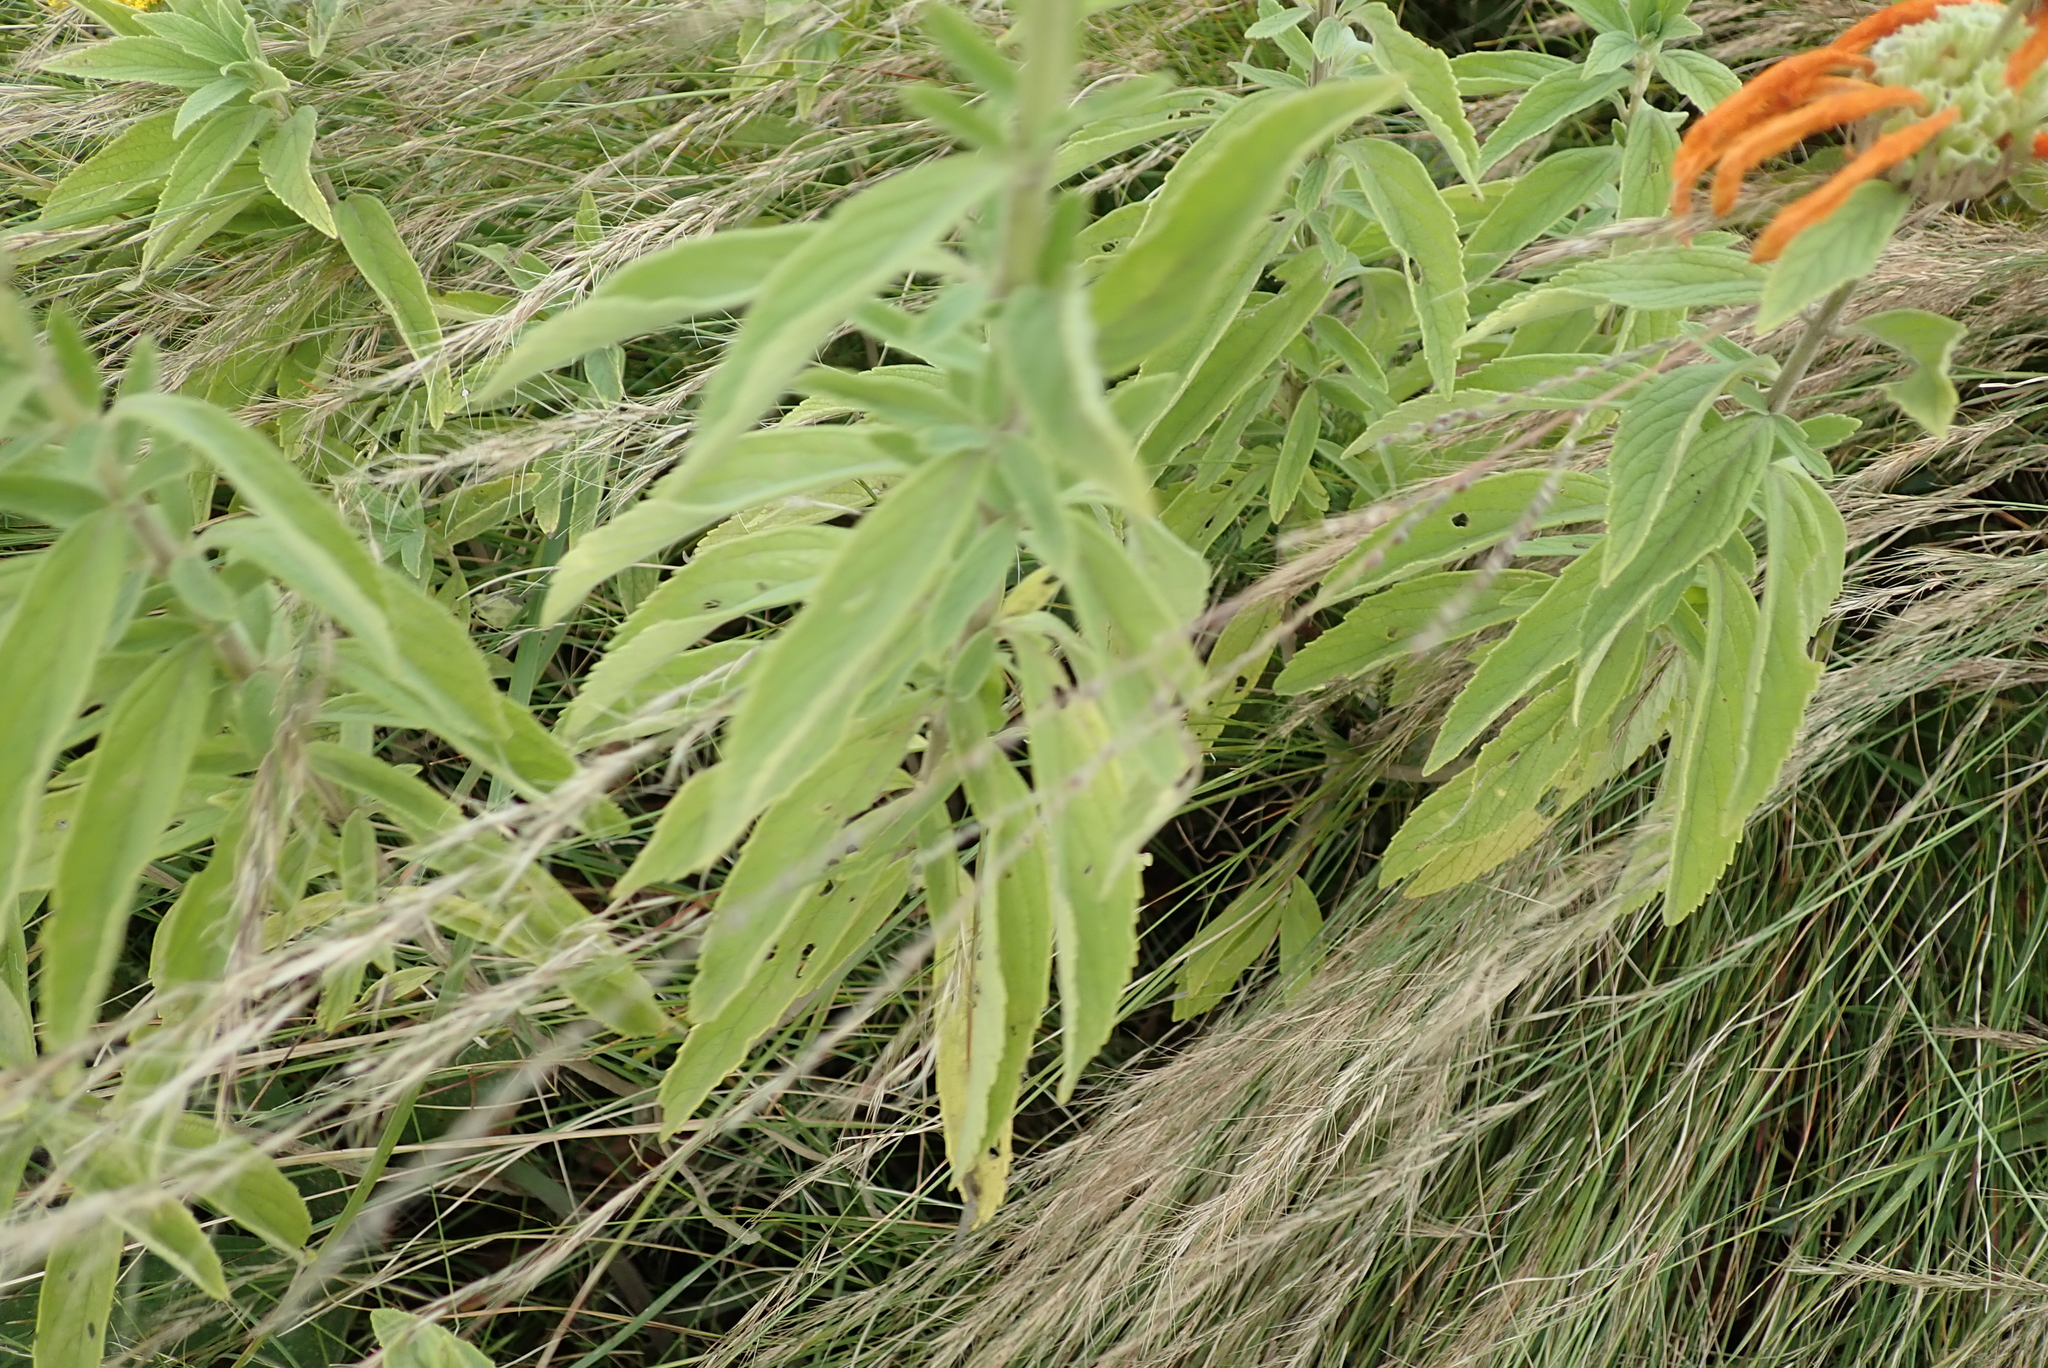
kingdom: Plantae
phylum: Tracheophyta
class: Magnoliopsida
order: Lamiales
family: Lamiaceae
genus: Leonotis
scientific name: Leonotis leonurus
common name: Lion's ear
